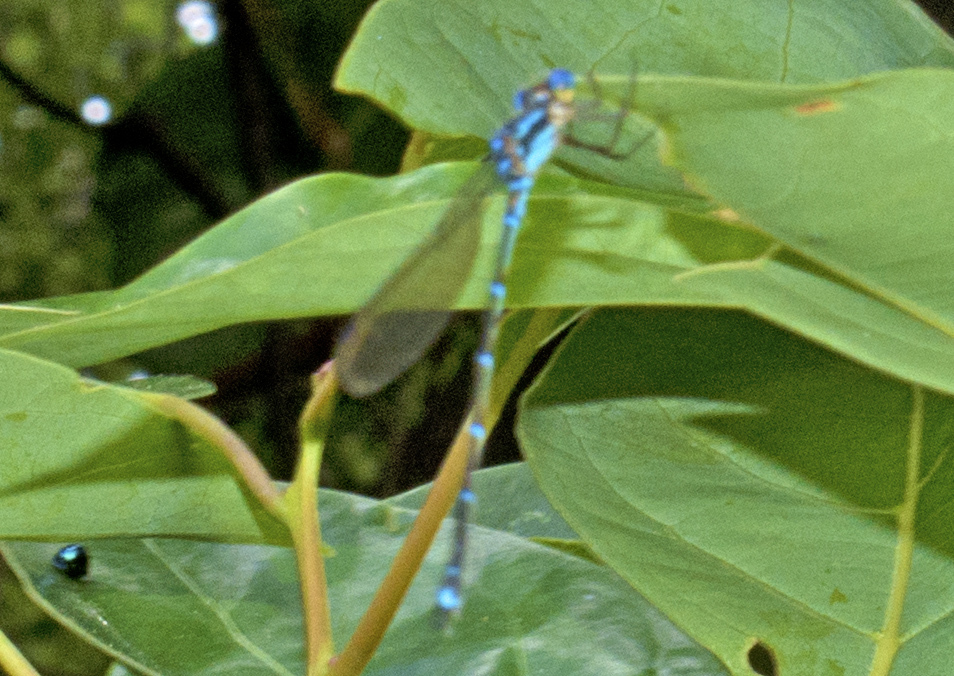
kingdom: Animalia
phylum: Arthropoda
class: Insecta
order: Odonata
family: Lestidae
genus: Austrolestes
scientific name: Austrolestes colensonis
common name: Blue damselfly
